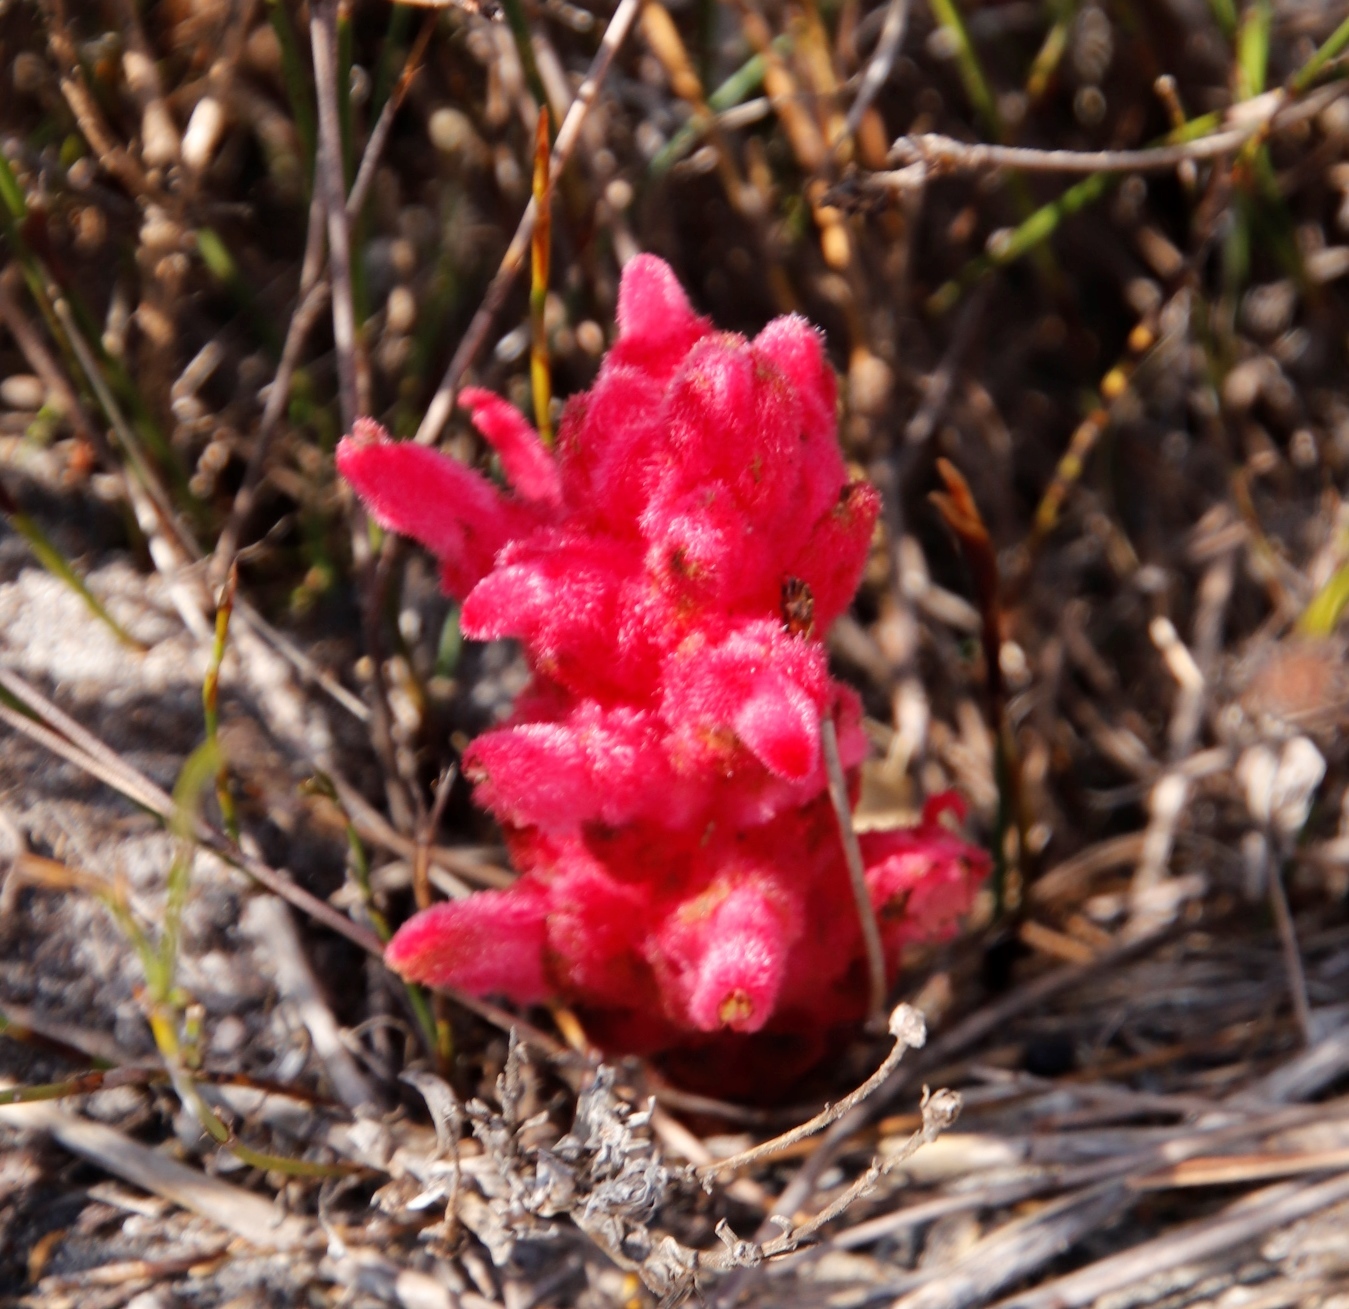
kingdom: Plantae
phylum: Tracheophyta
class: Magnoliopsida
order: Lamiales
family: Orobanchaceae
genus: Hyobanche
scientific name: Hyobanche sanguinea
